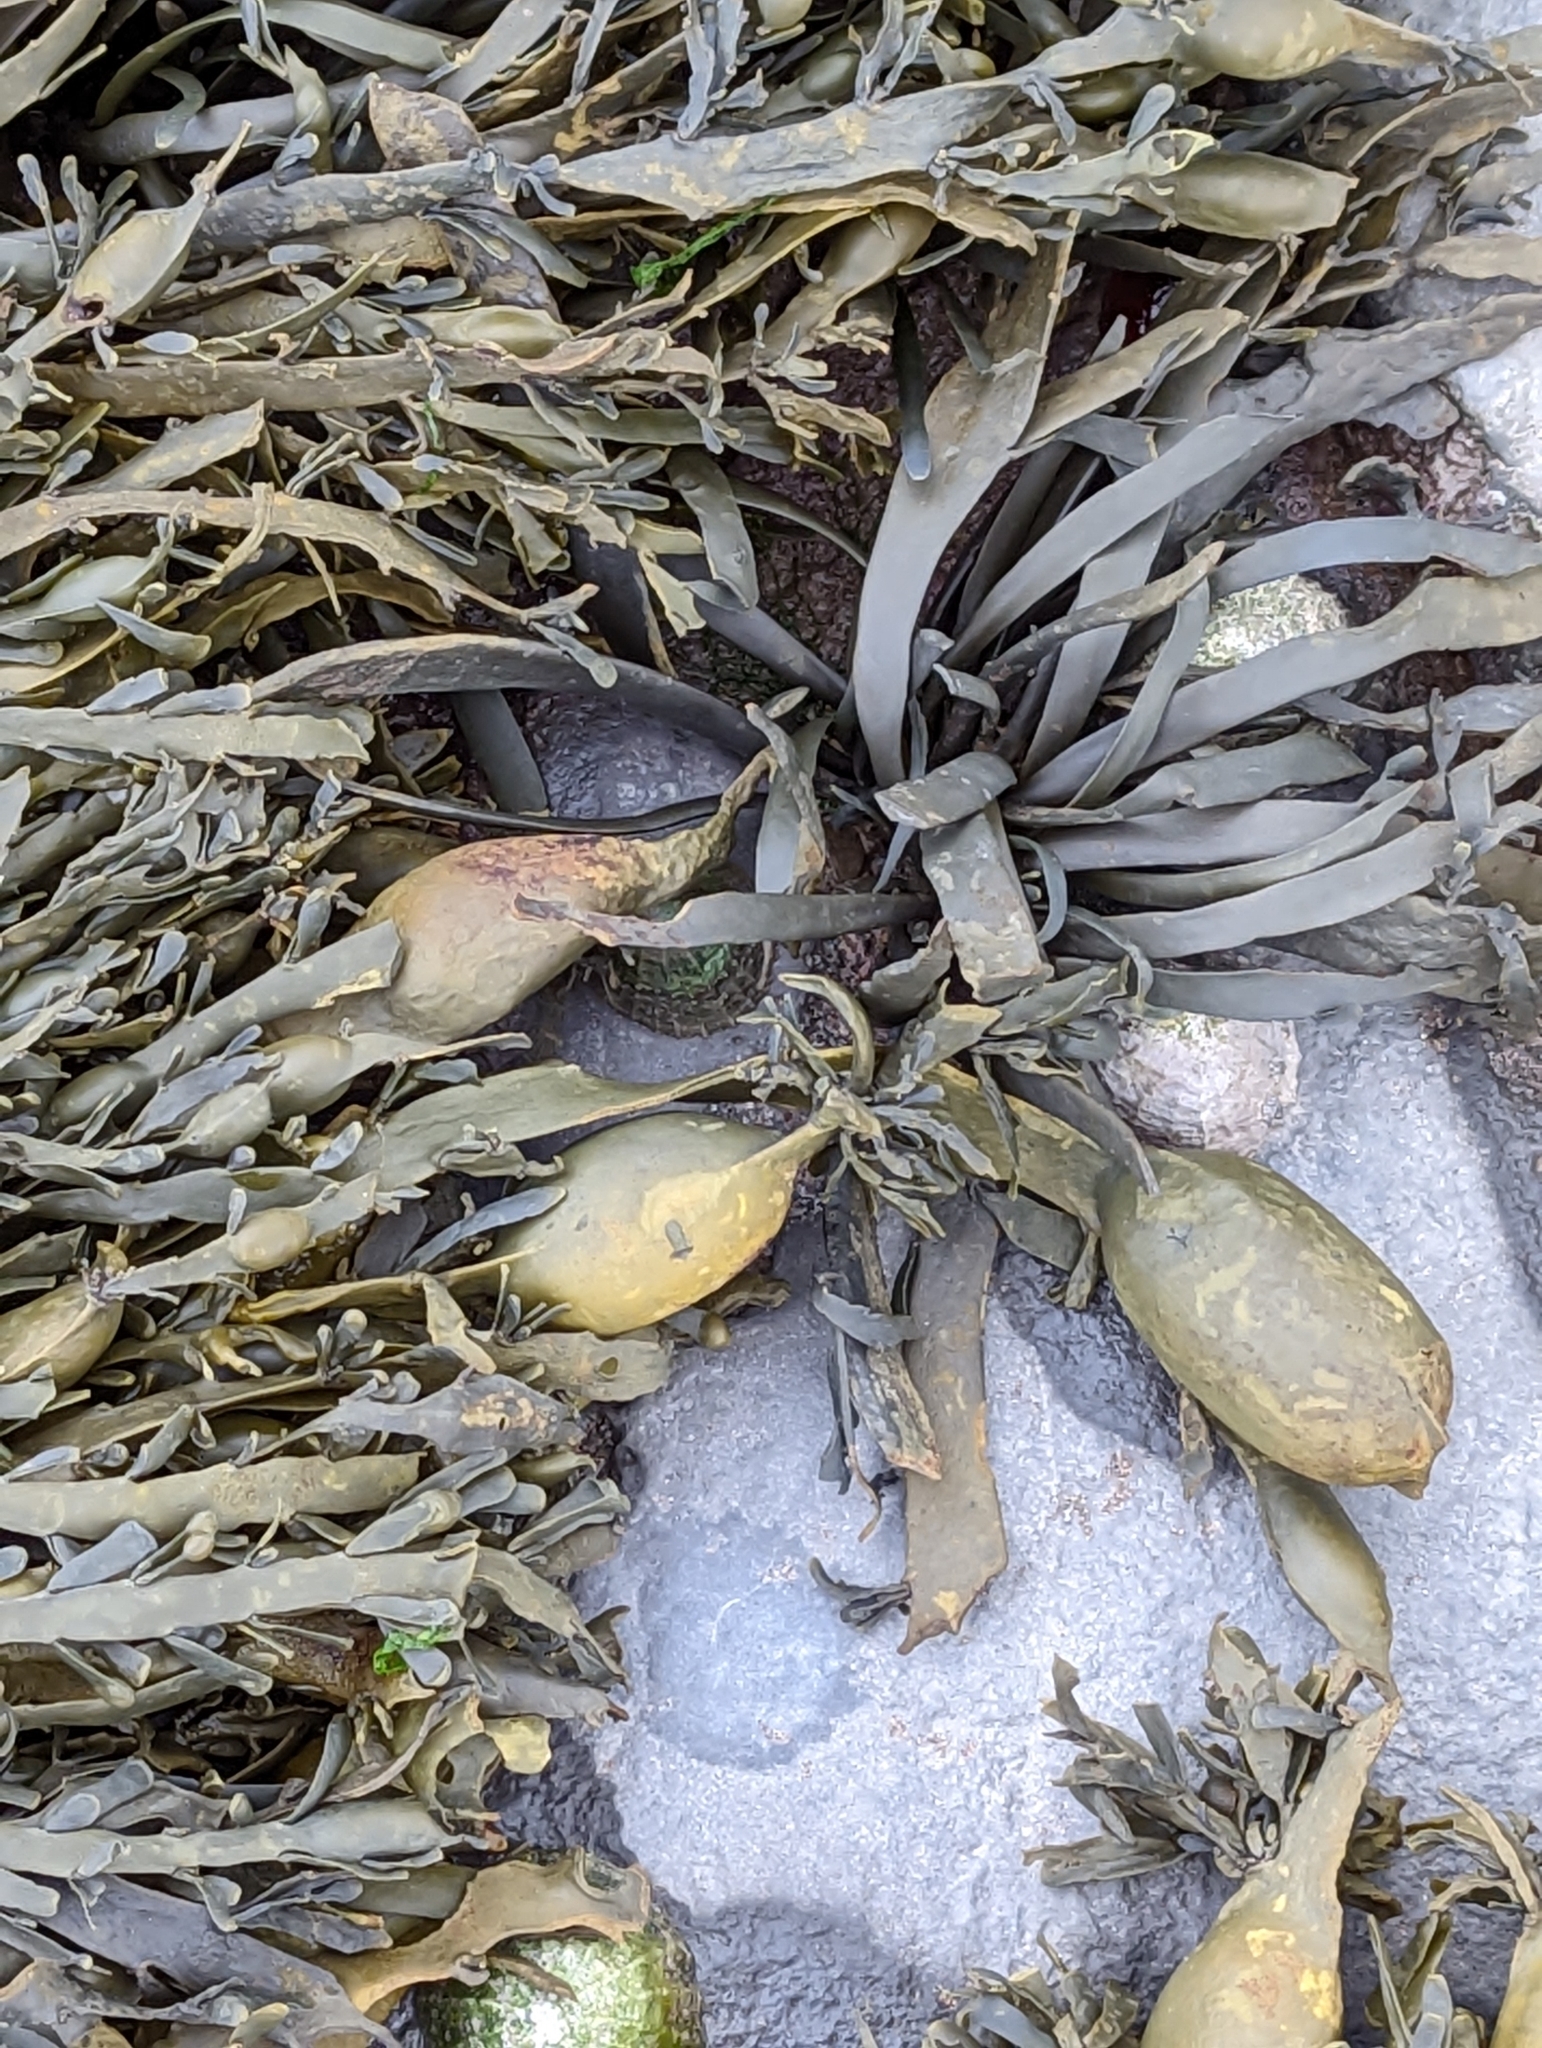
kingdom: Chromista
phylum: Ochrophyta
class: Phaeophyceae
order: Fucales
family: Fucaceae
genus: Ascophyllum
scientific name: Ascophyllum nodosum
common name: Knotted wrack
